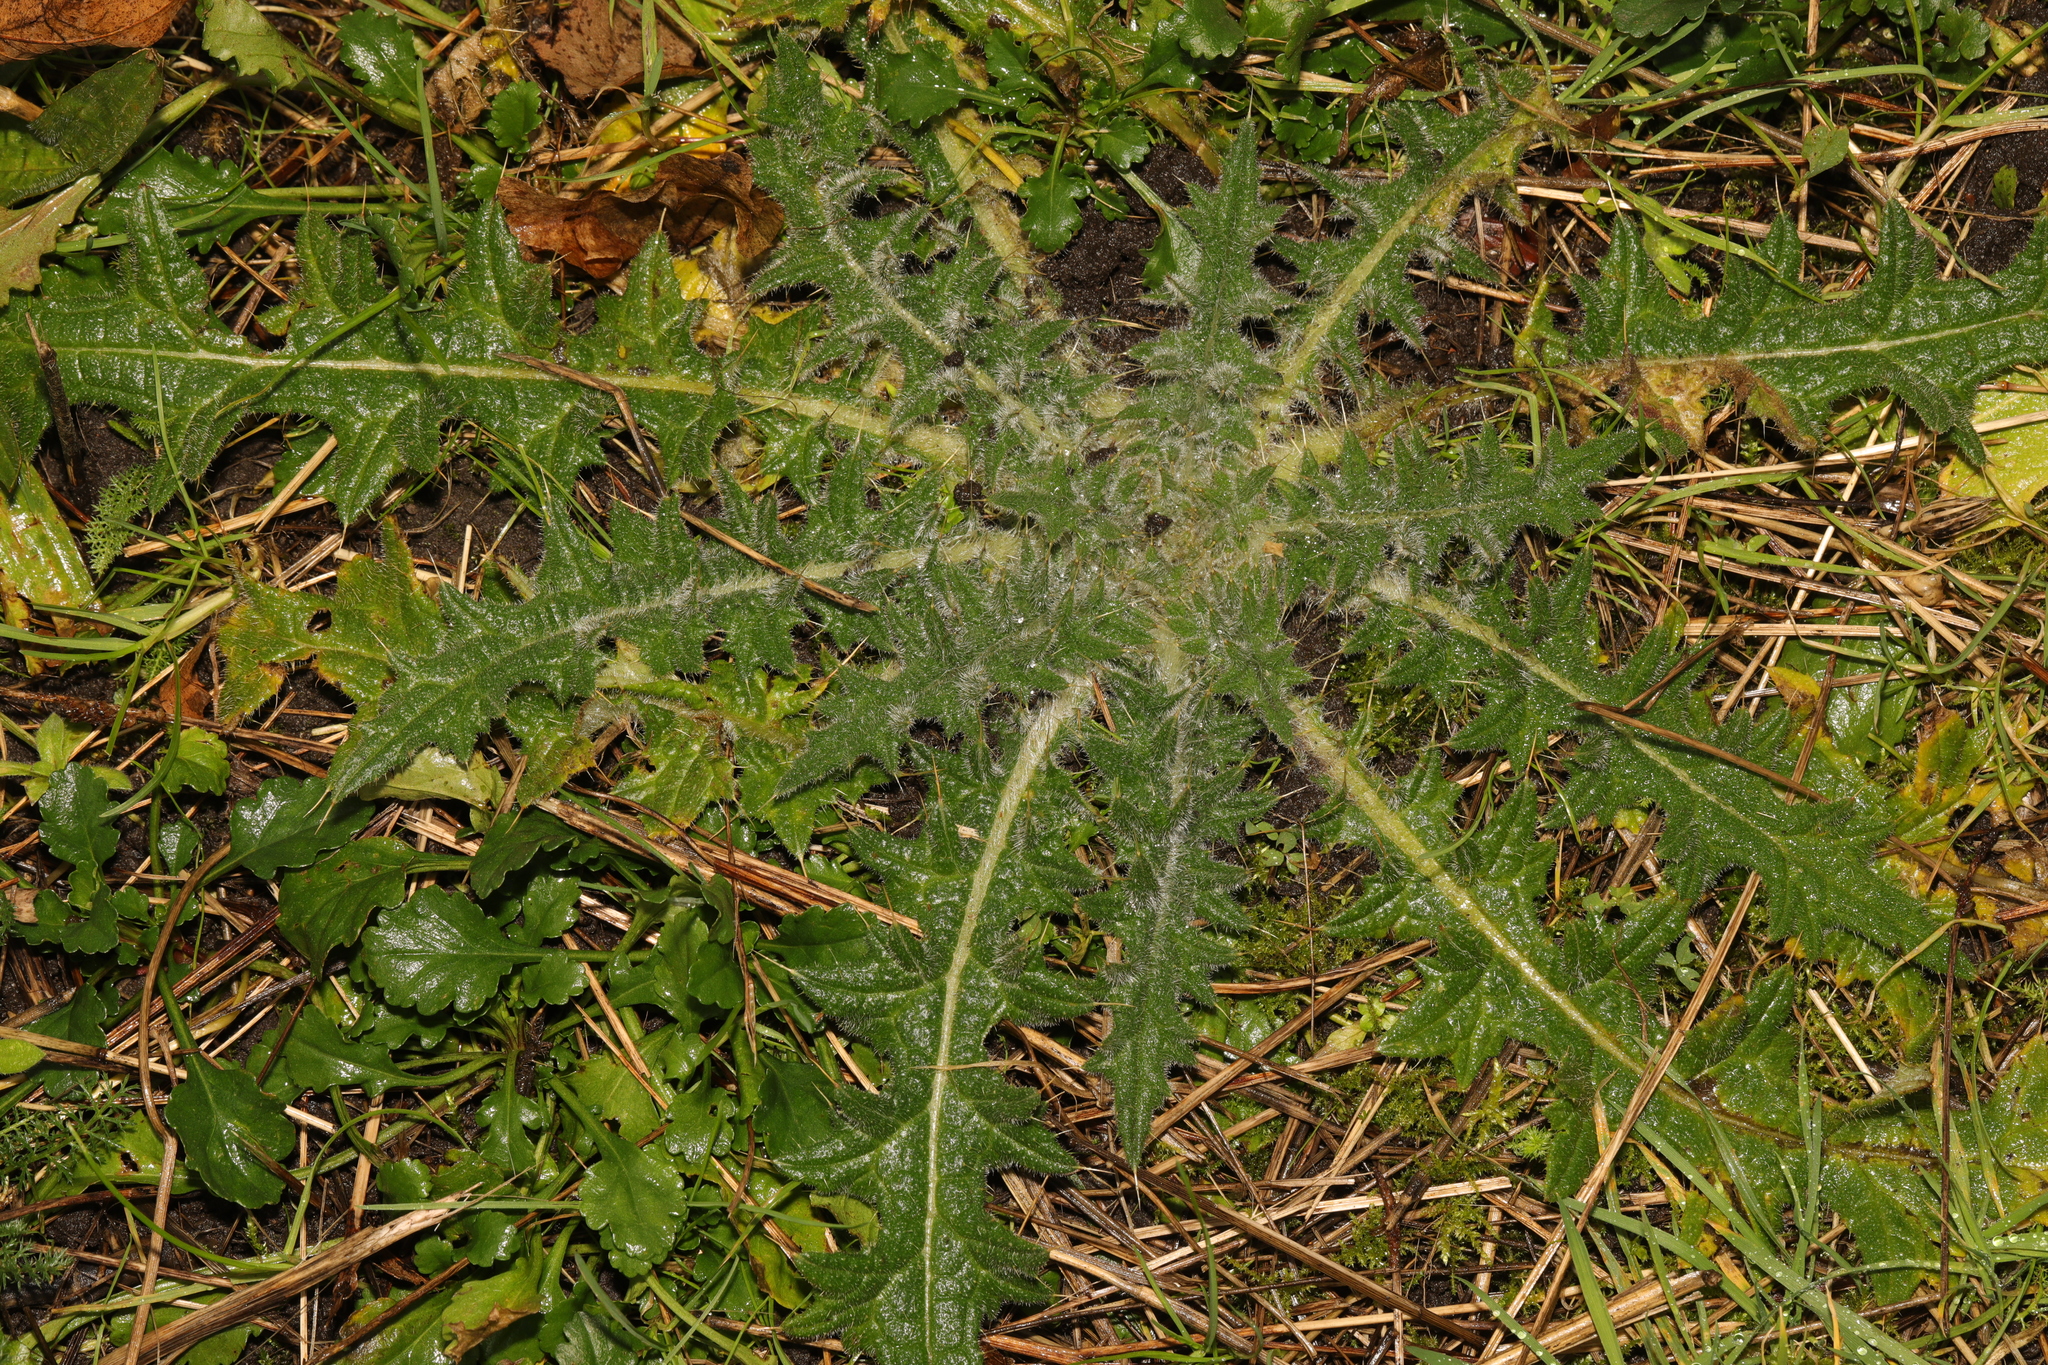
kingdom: Plantae
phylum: Tracheophyta
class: Magnoliopsida
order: Asterales
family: Asteraceae
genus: Cirsium
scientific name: Cirsium vulgare
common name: Bull thistle
